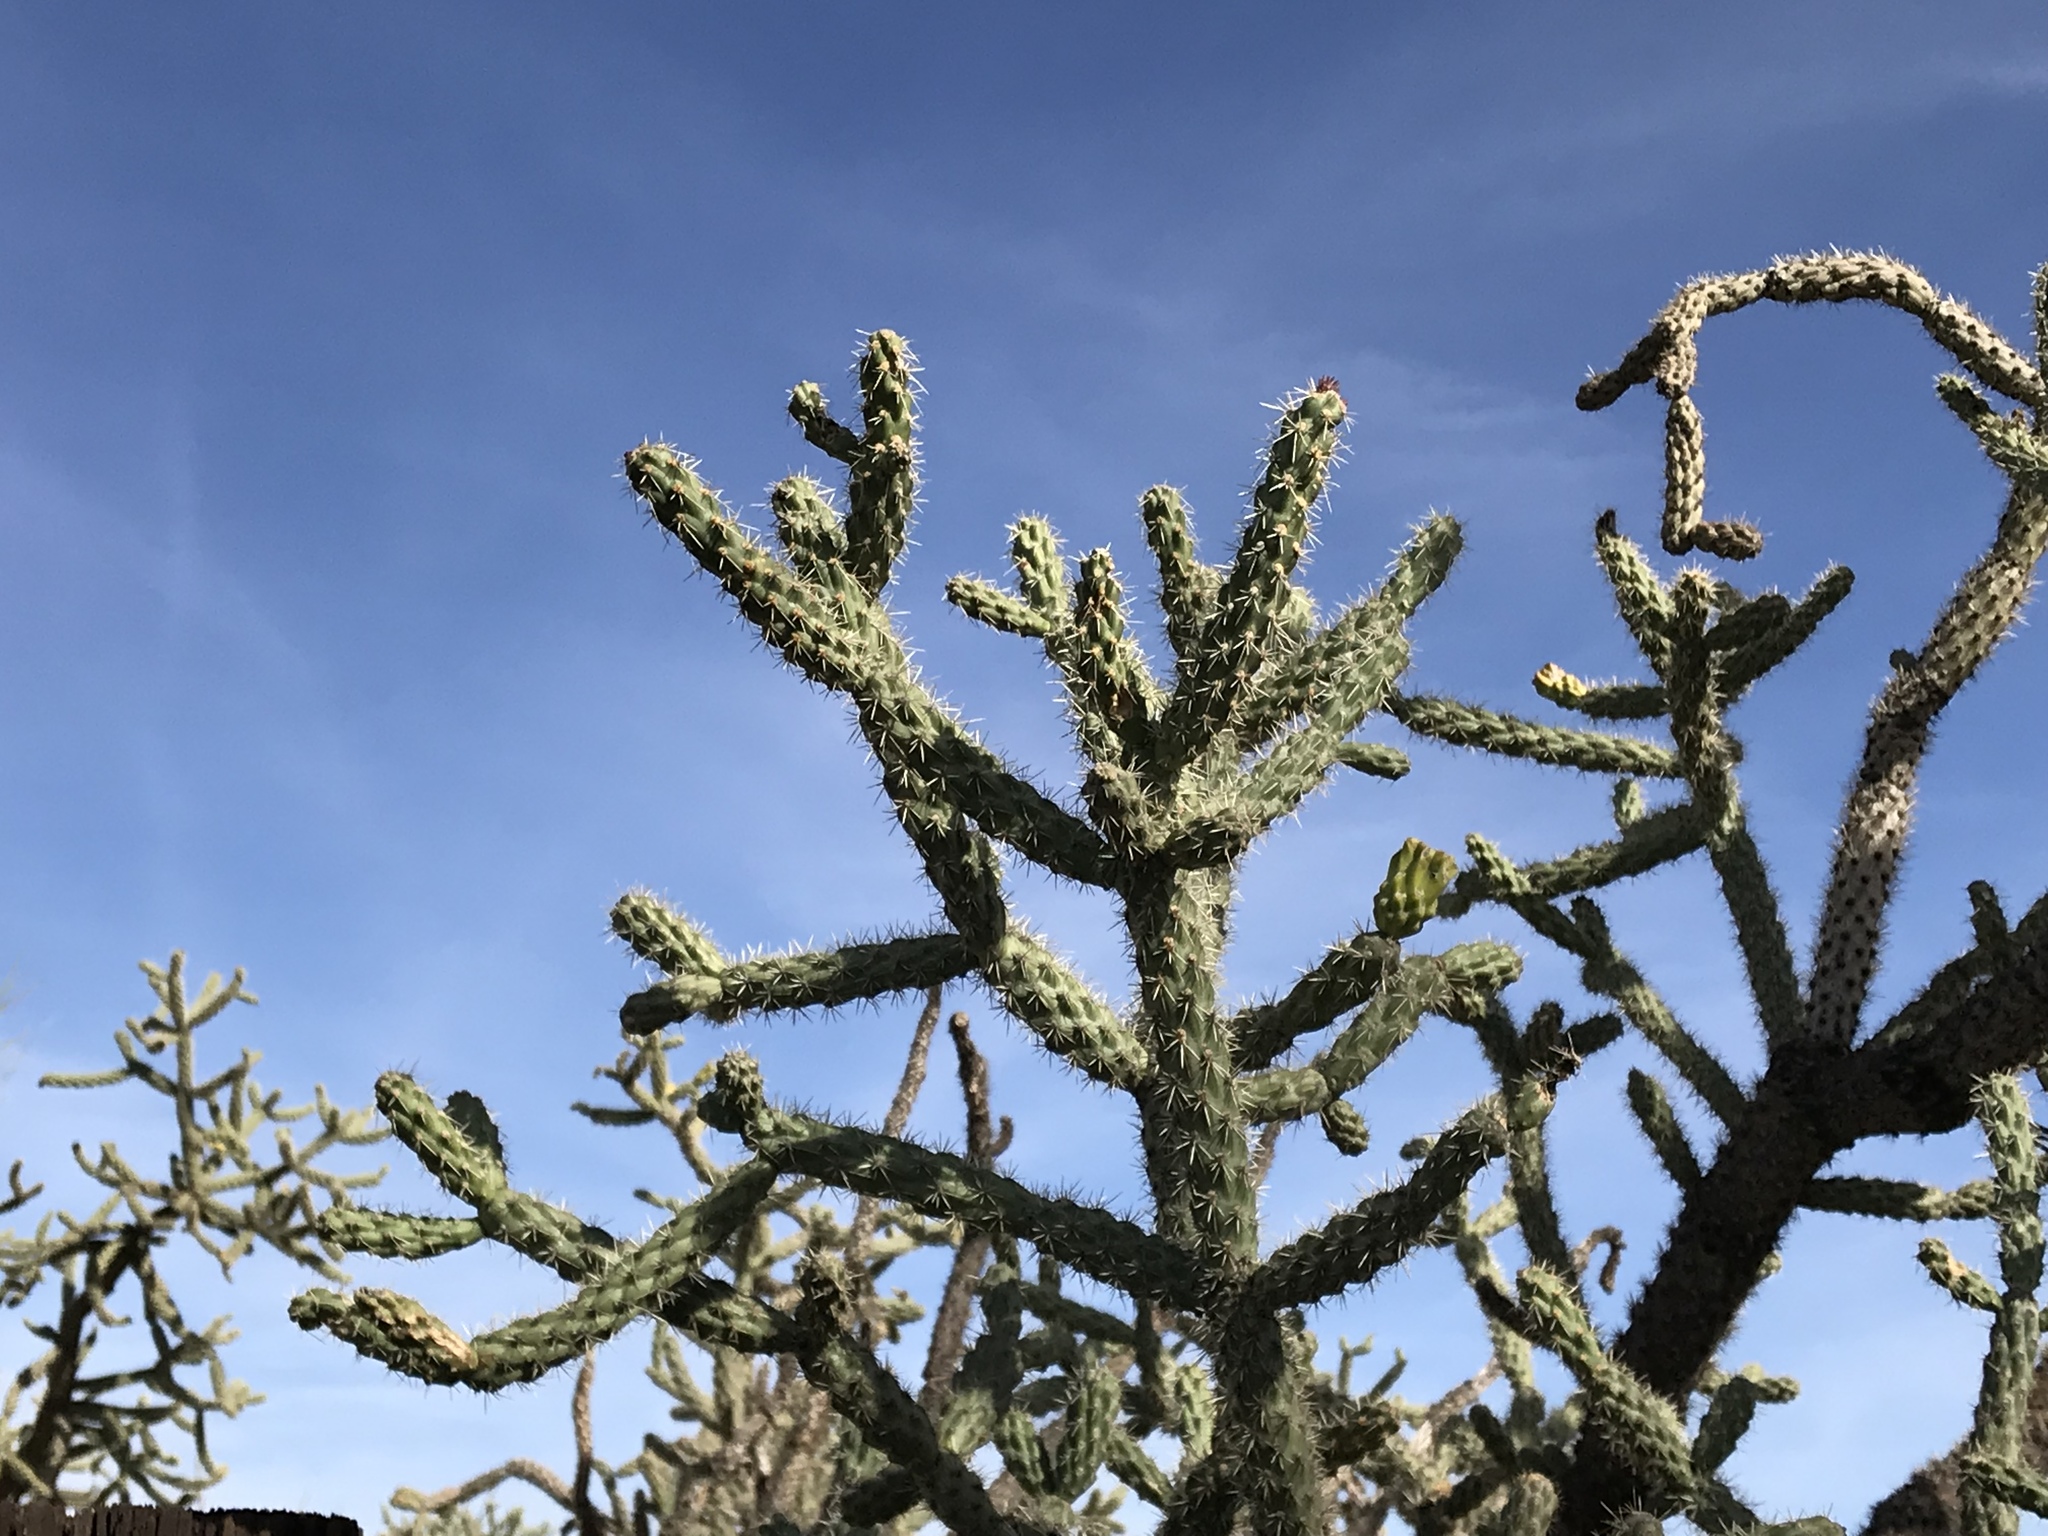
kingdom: Plantae
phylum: Tracheophyta
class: Magnoliopsida
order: Caryophyllales
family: Cactaceae
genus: Cylindropuntia
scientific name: Cylindropuntia imbricata
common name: Candelabrum cactus
